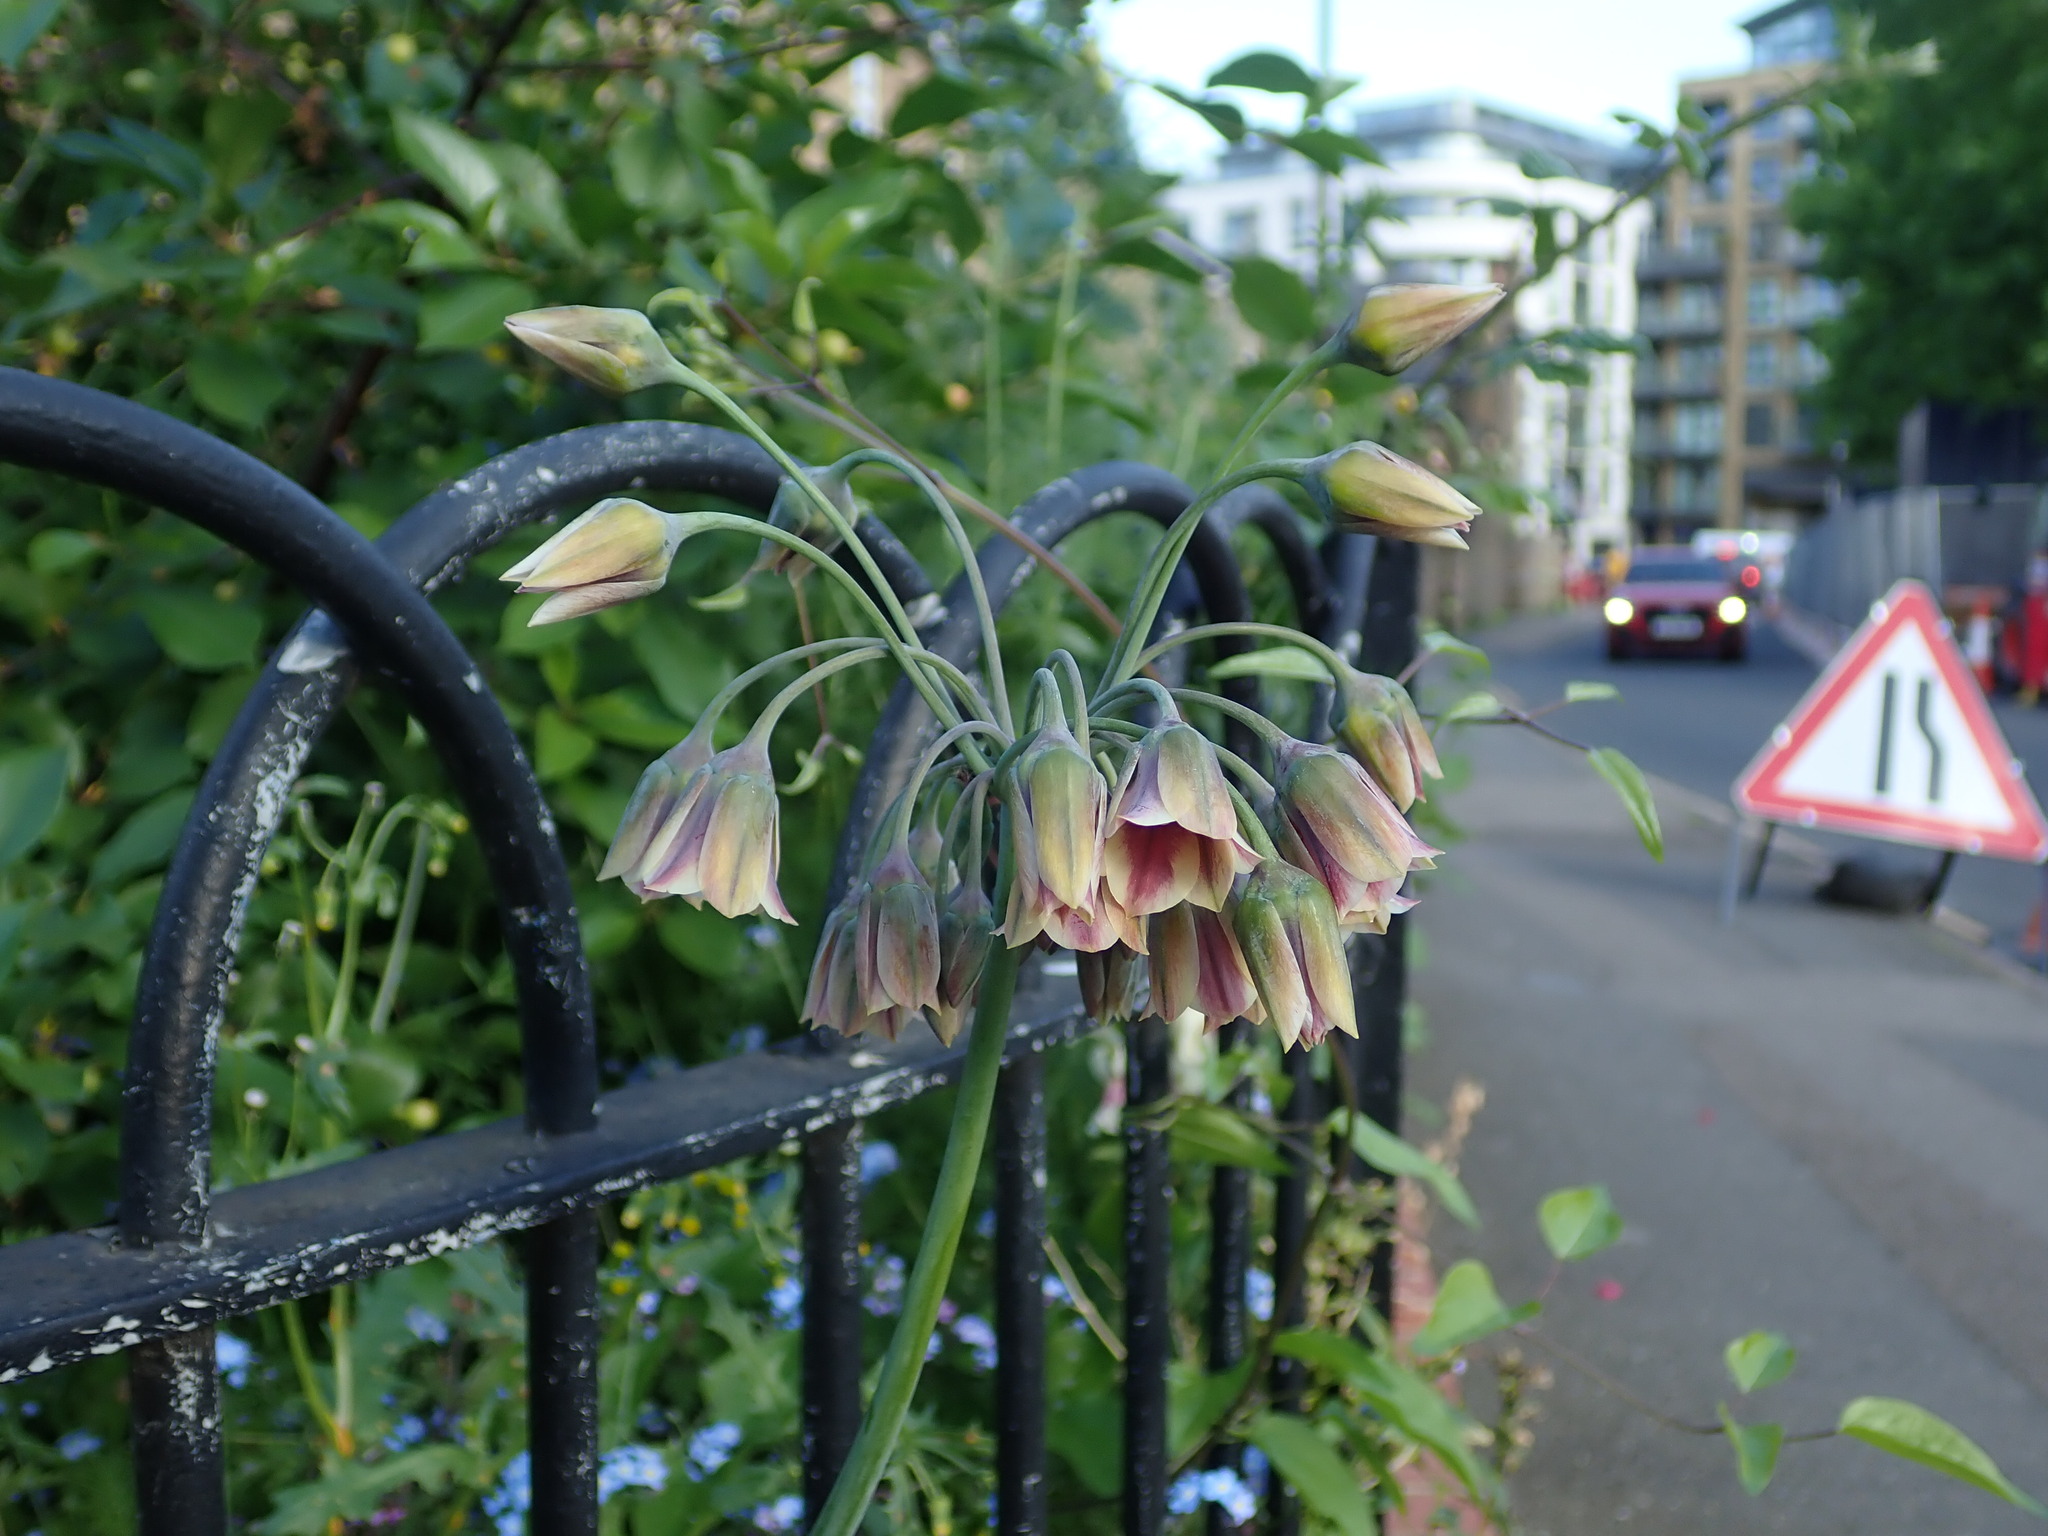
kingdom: Plantae
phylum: Tracheophyta
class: Liliopsida
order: Asparagales
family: Amaryllidaceae
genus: Allium
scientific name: Allium siculum
